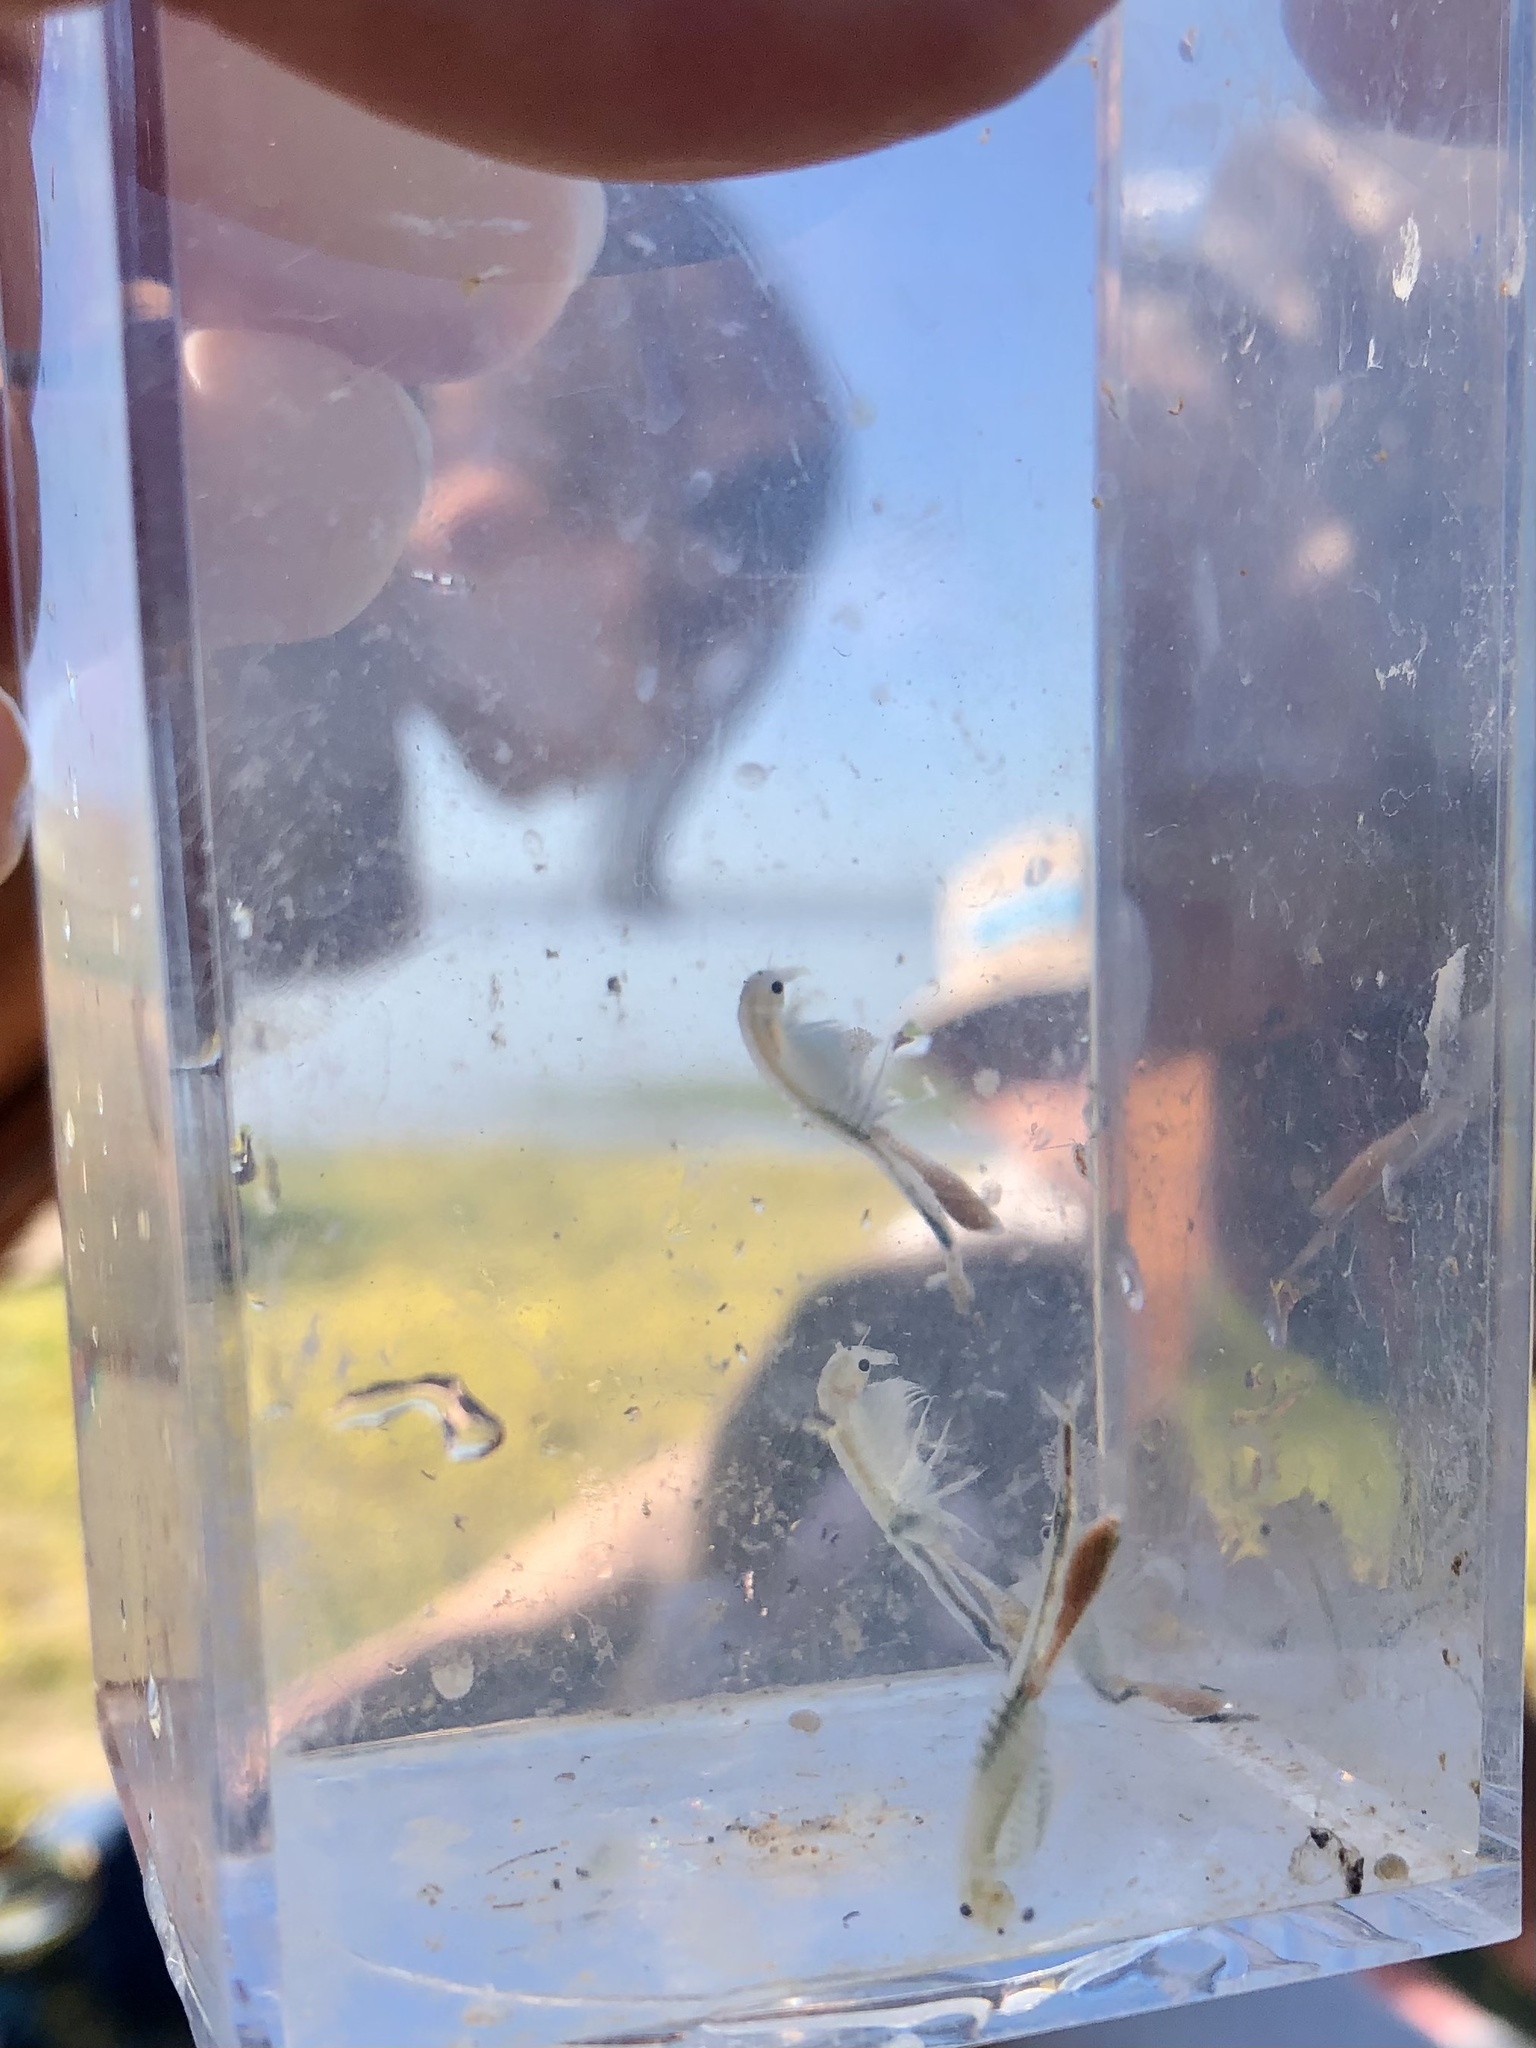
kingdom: Animalia
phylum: Arthropoda
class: Branchiopoda
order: Anostraca
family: Branchinectidae
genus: Branchinecta
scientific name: Branchinecta conservatio
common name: Conservancy fairy shrimp
